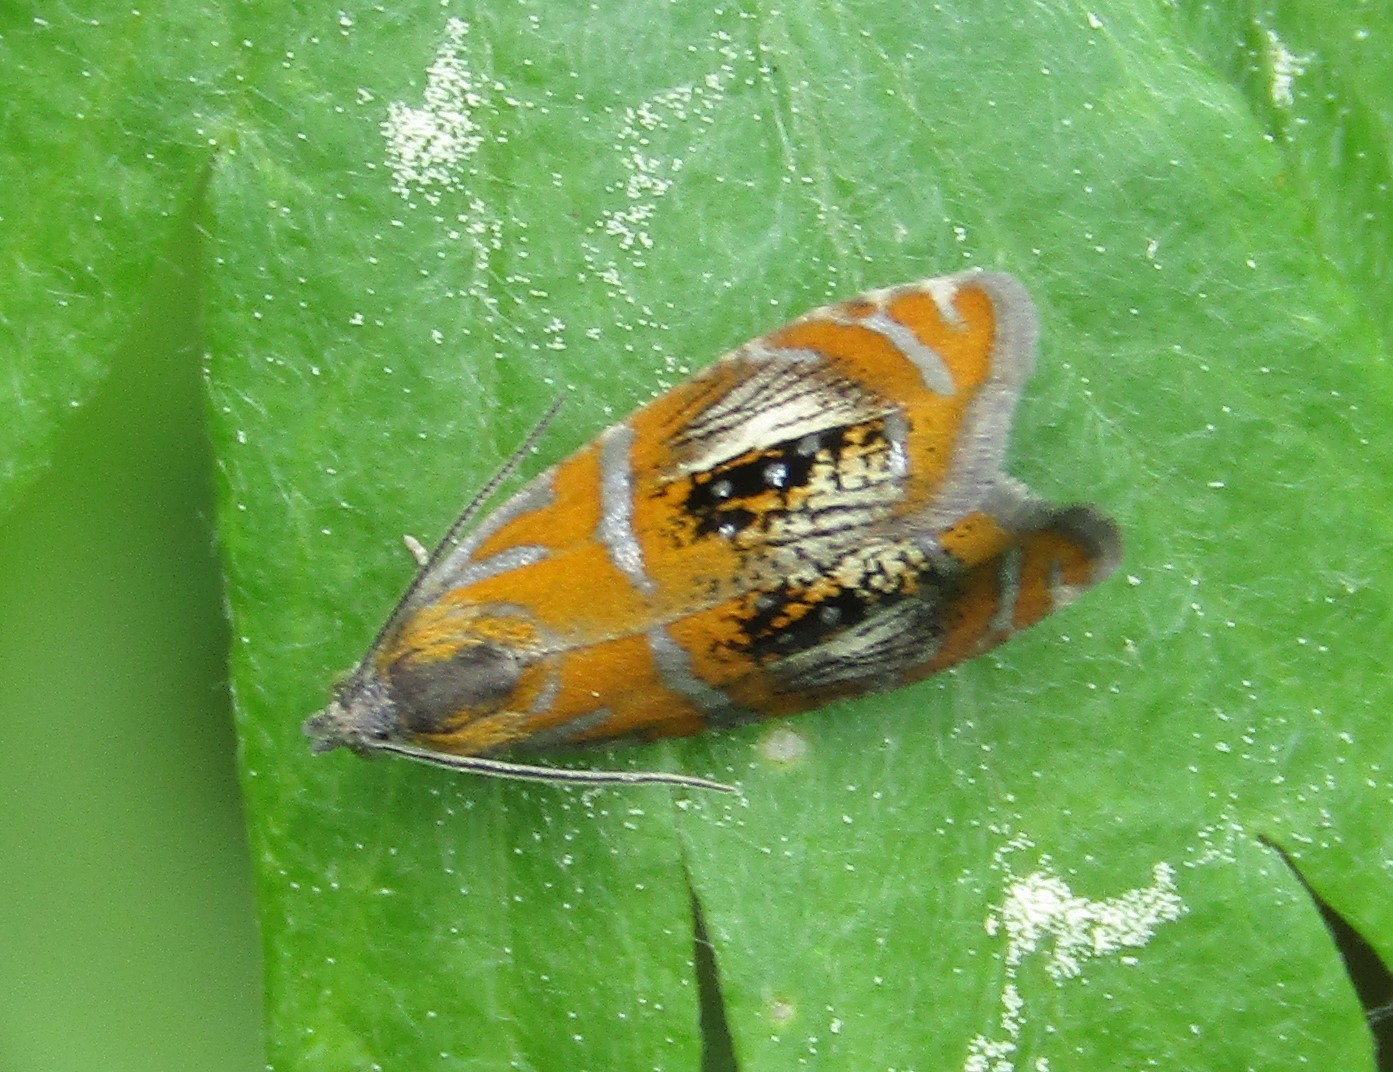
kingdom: Animalia
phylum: Arthropoda
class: Insecta
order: Lepidoptera
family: Tortricidae
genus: Olethreutes
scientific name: Olethreutes arcuella
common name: Arched marble
